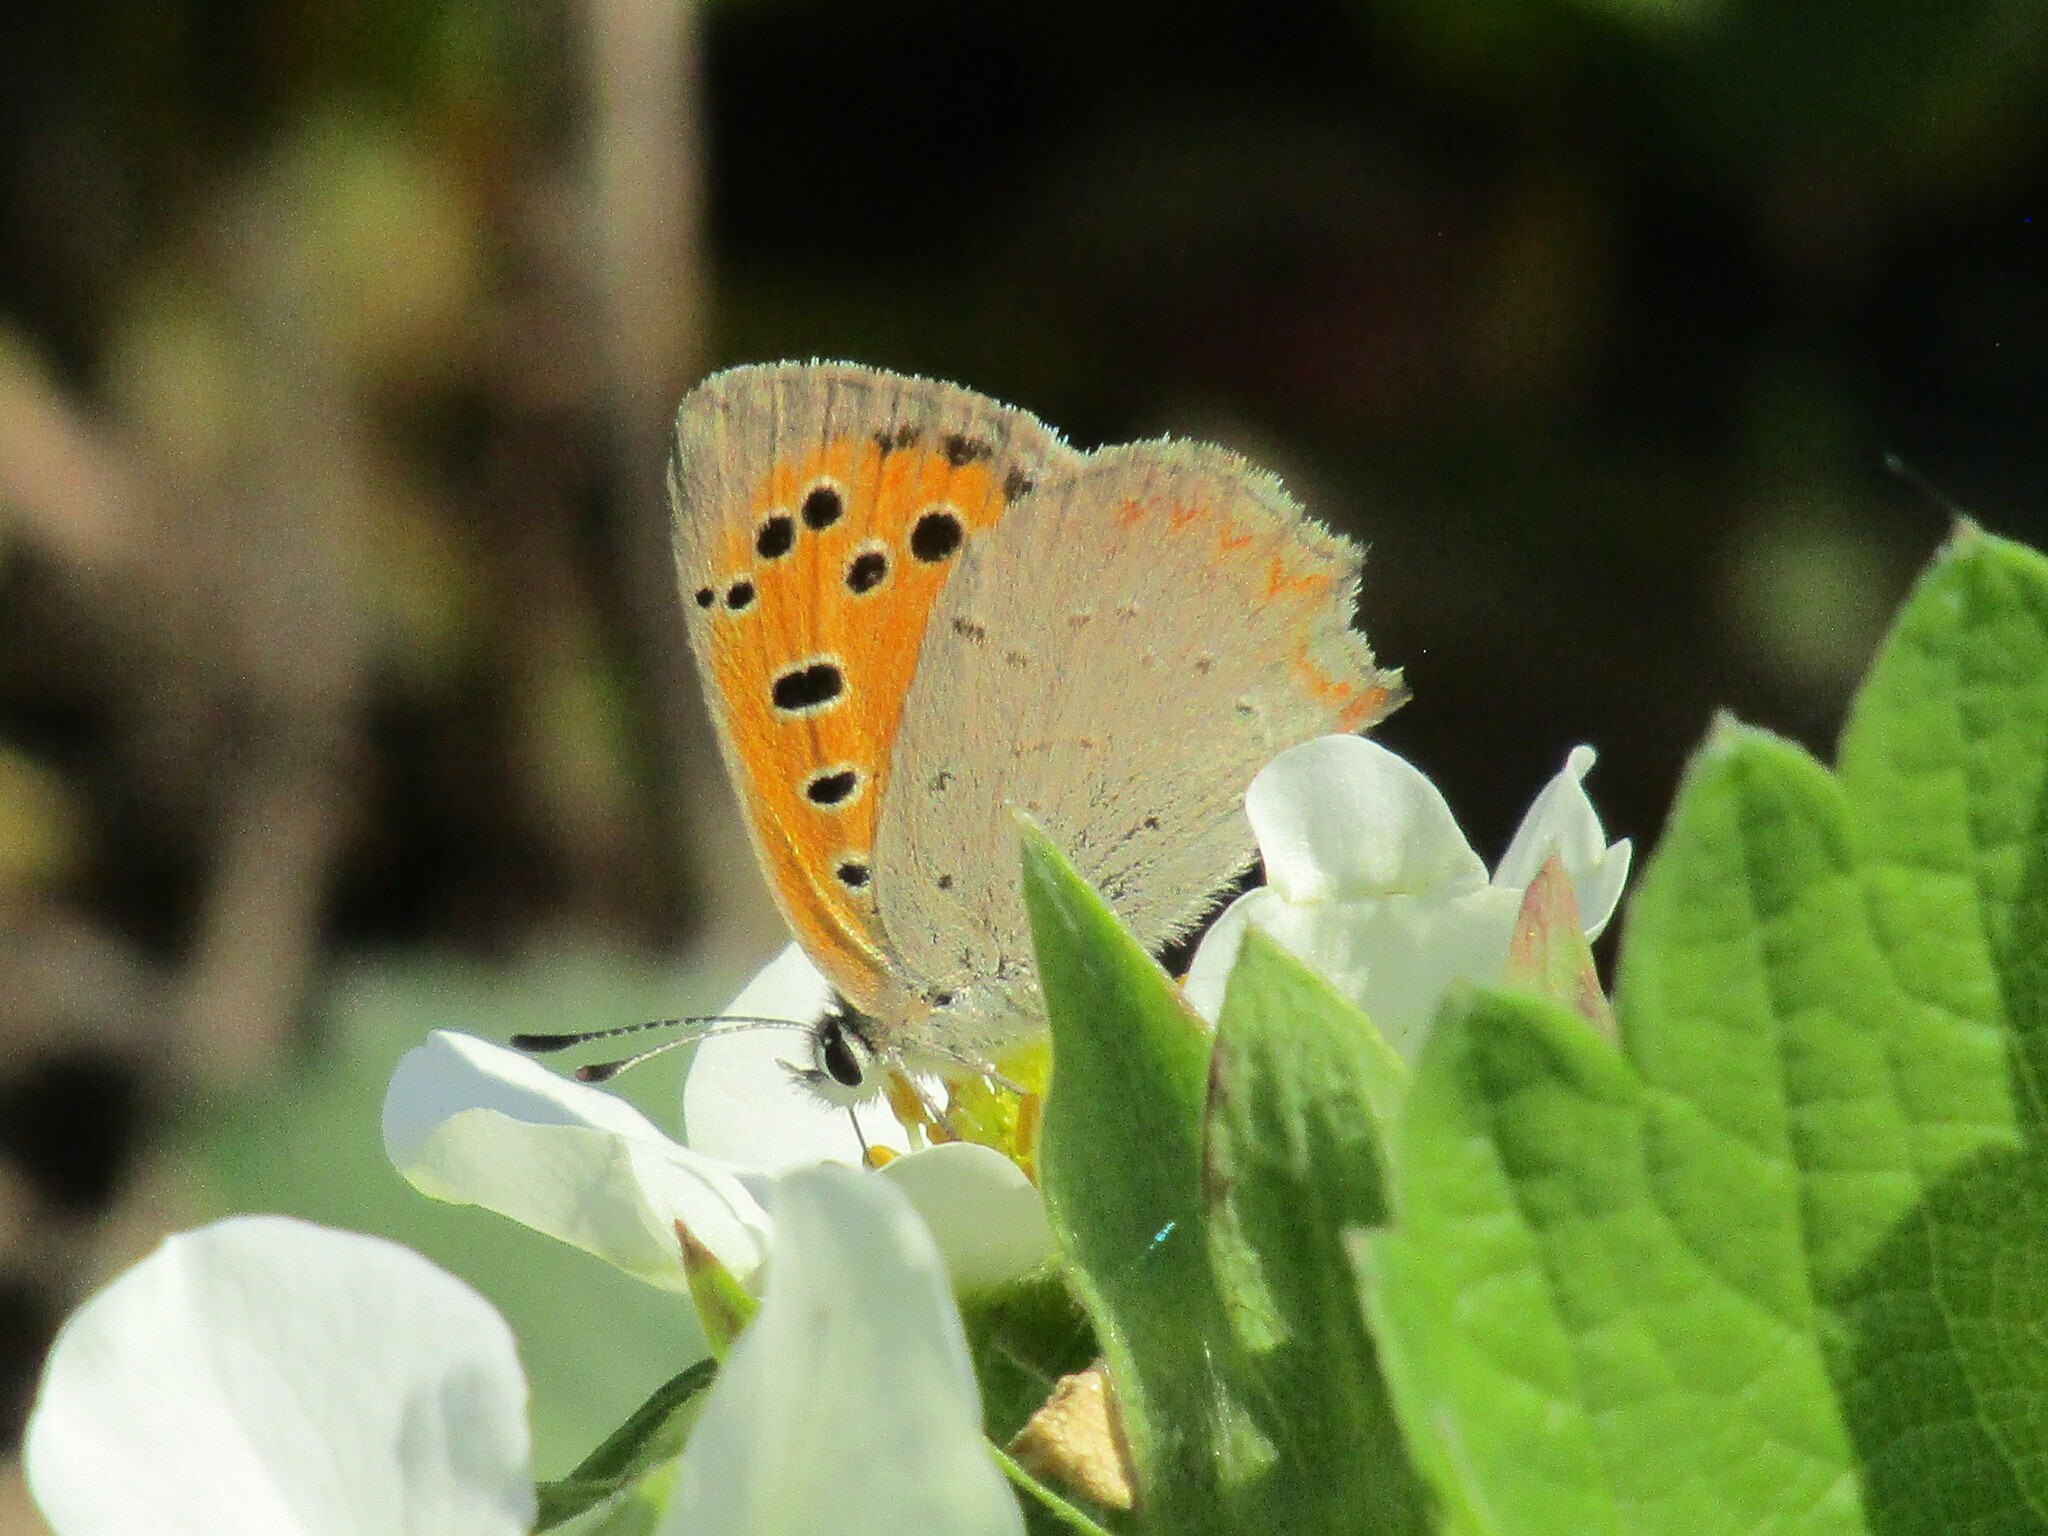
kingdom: Animalia
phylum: Arthropoda
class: Insecta
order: Lepidoptera
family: Lycaenidae
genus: Lycaena
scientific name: Lycaena phlaeas
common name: Small copper
